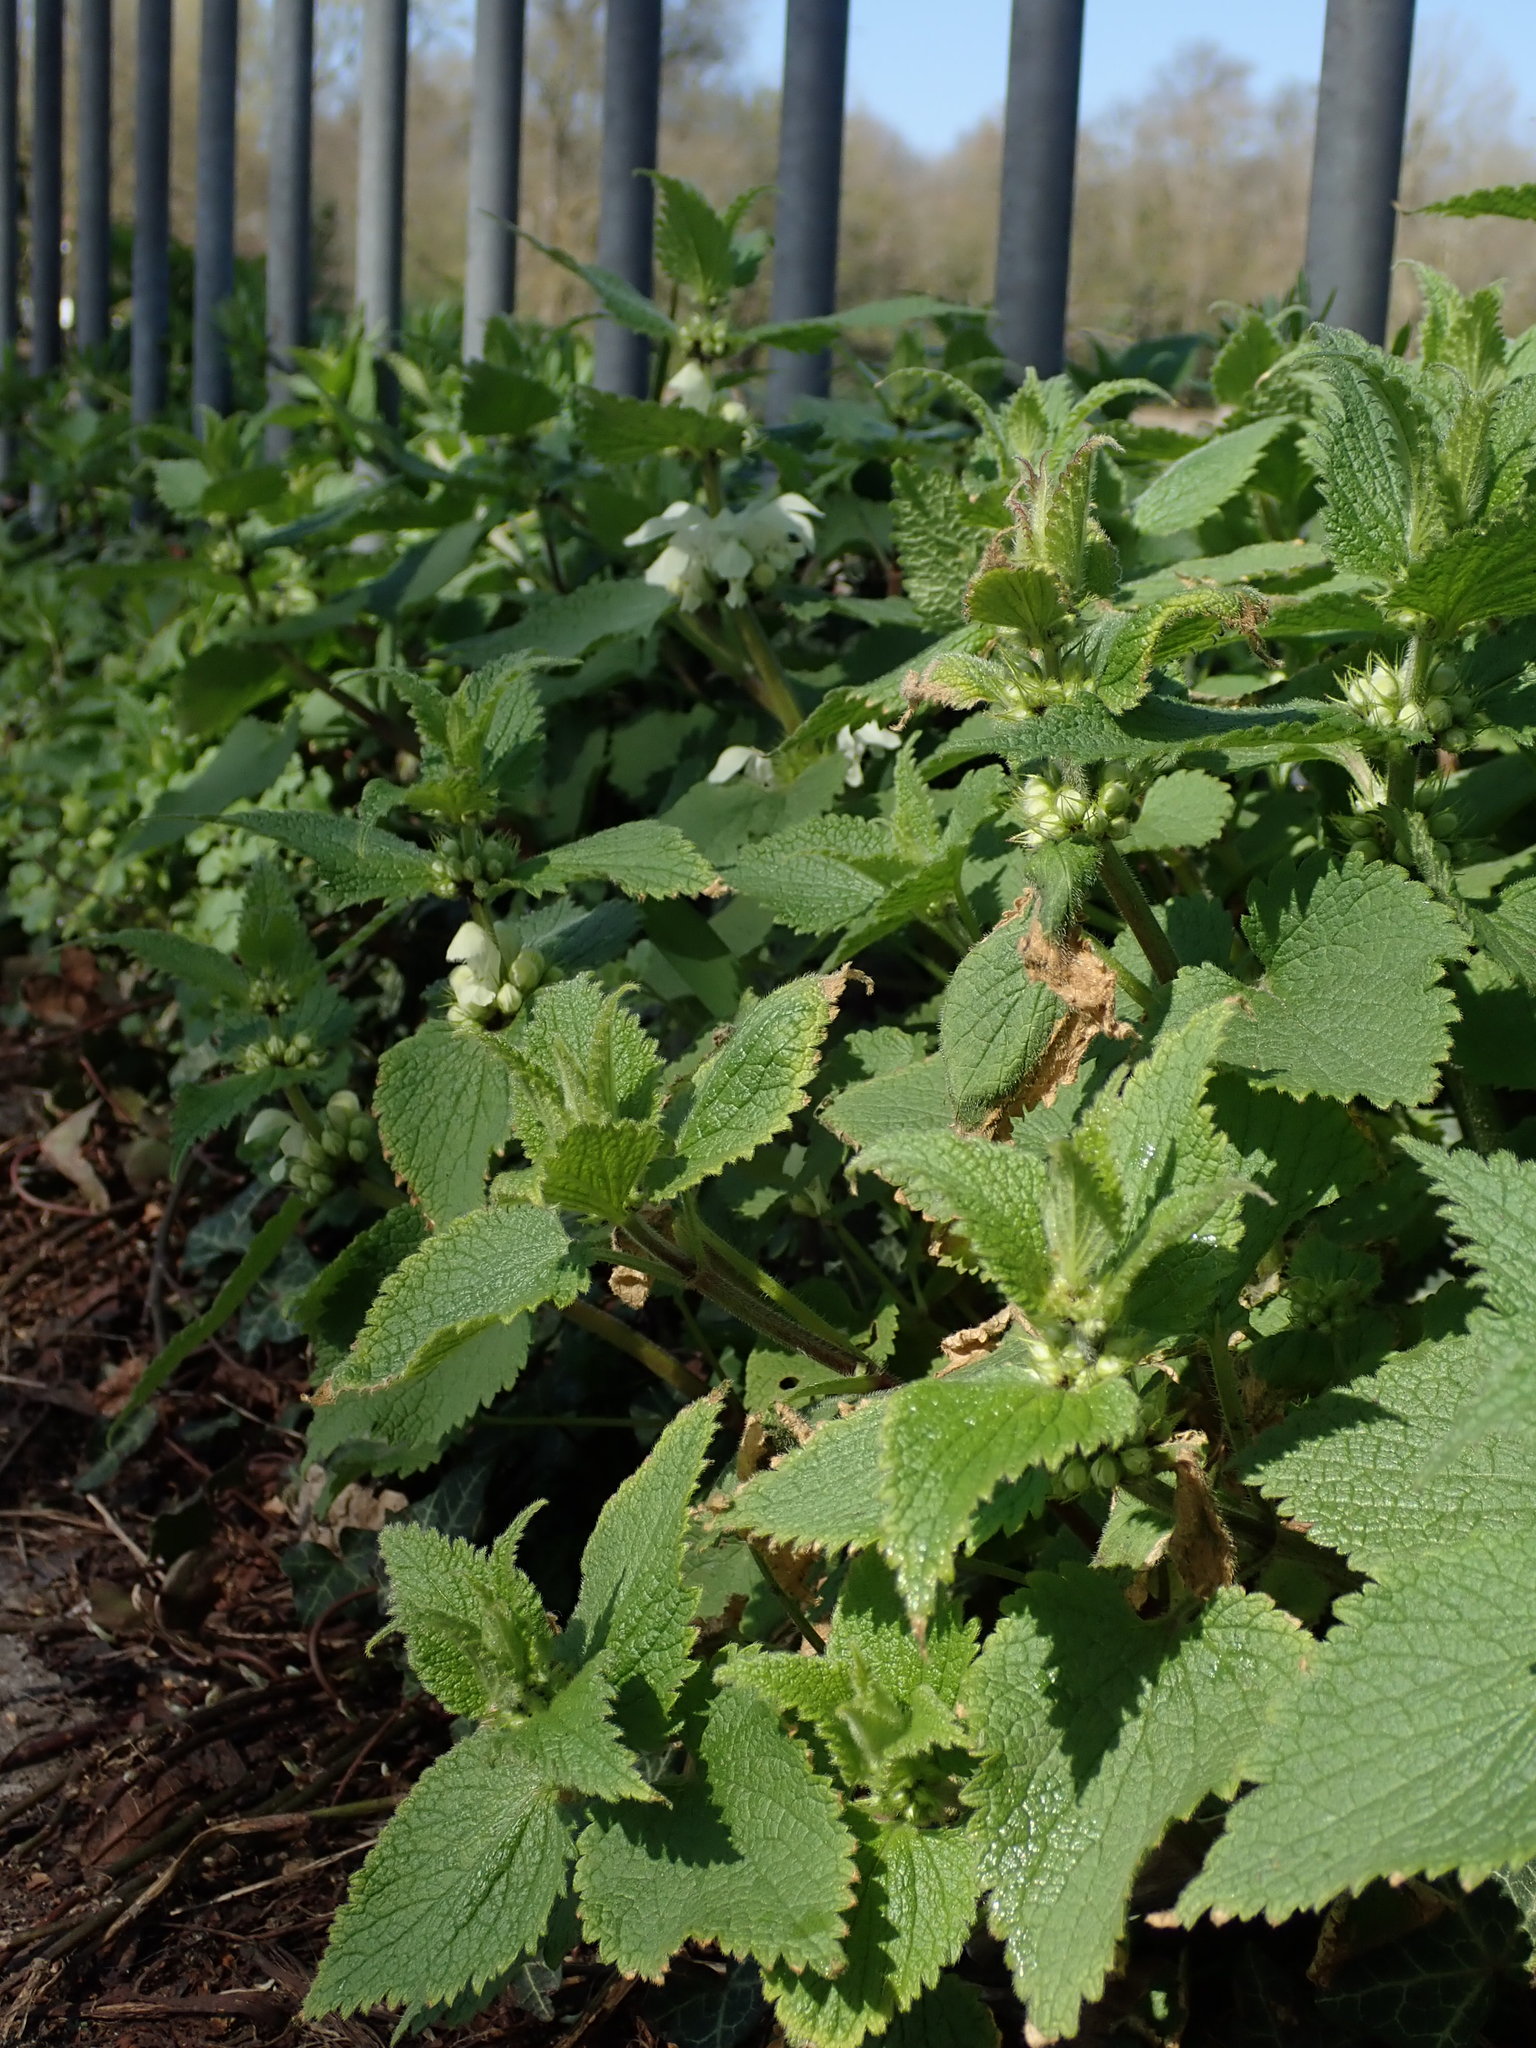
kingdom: Plantae
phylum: Tracheophyta
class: Magnoliopsida
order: Lamiales
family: Lamiaceae
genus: Lamium
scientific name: Lamium album
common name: White dead-nettle
